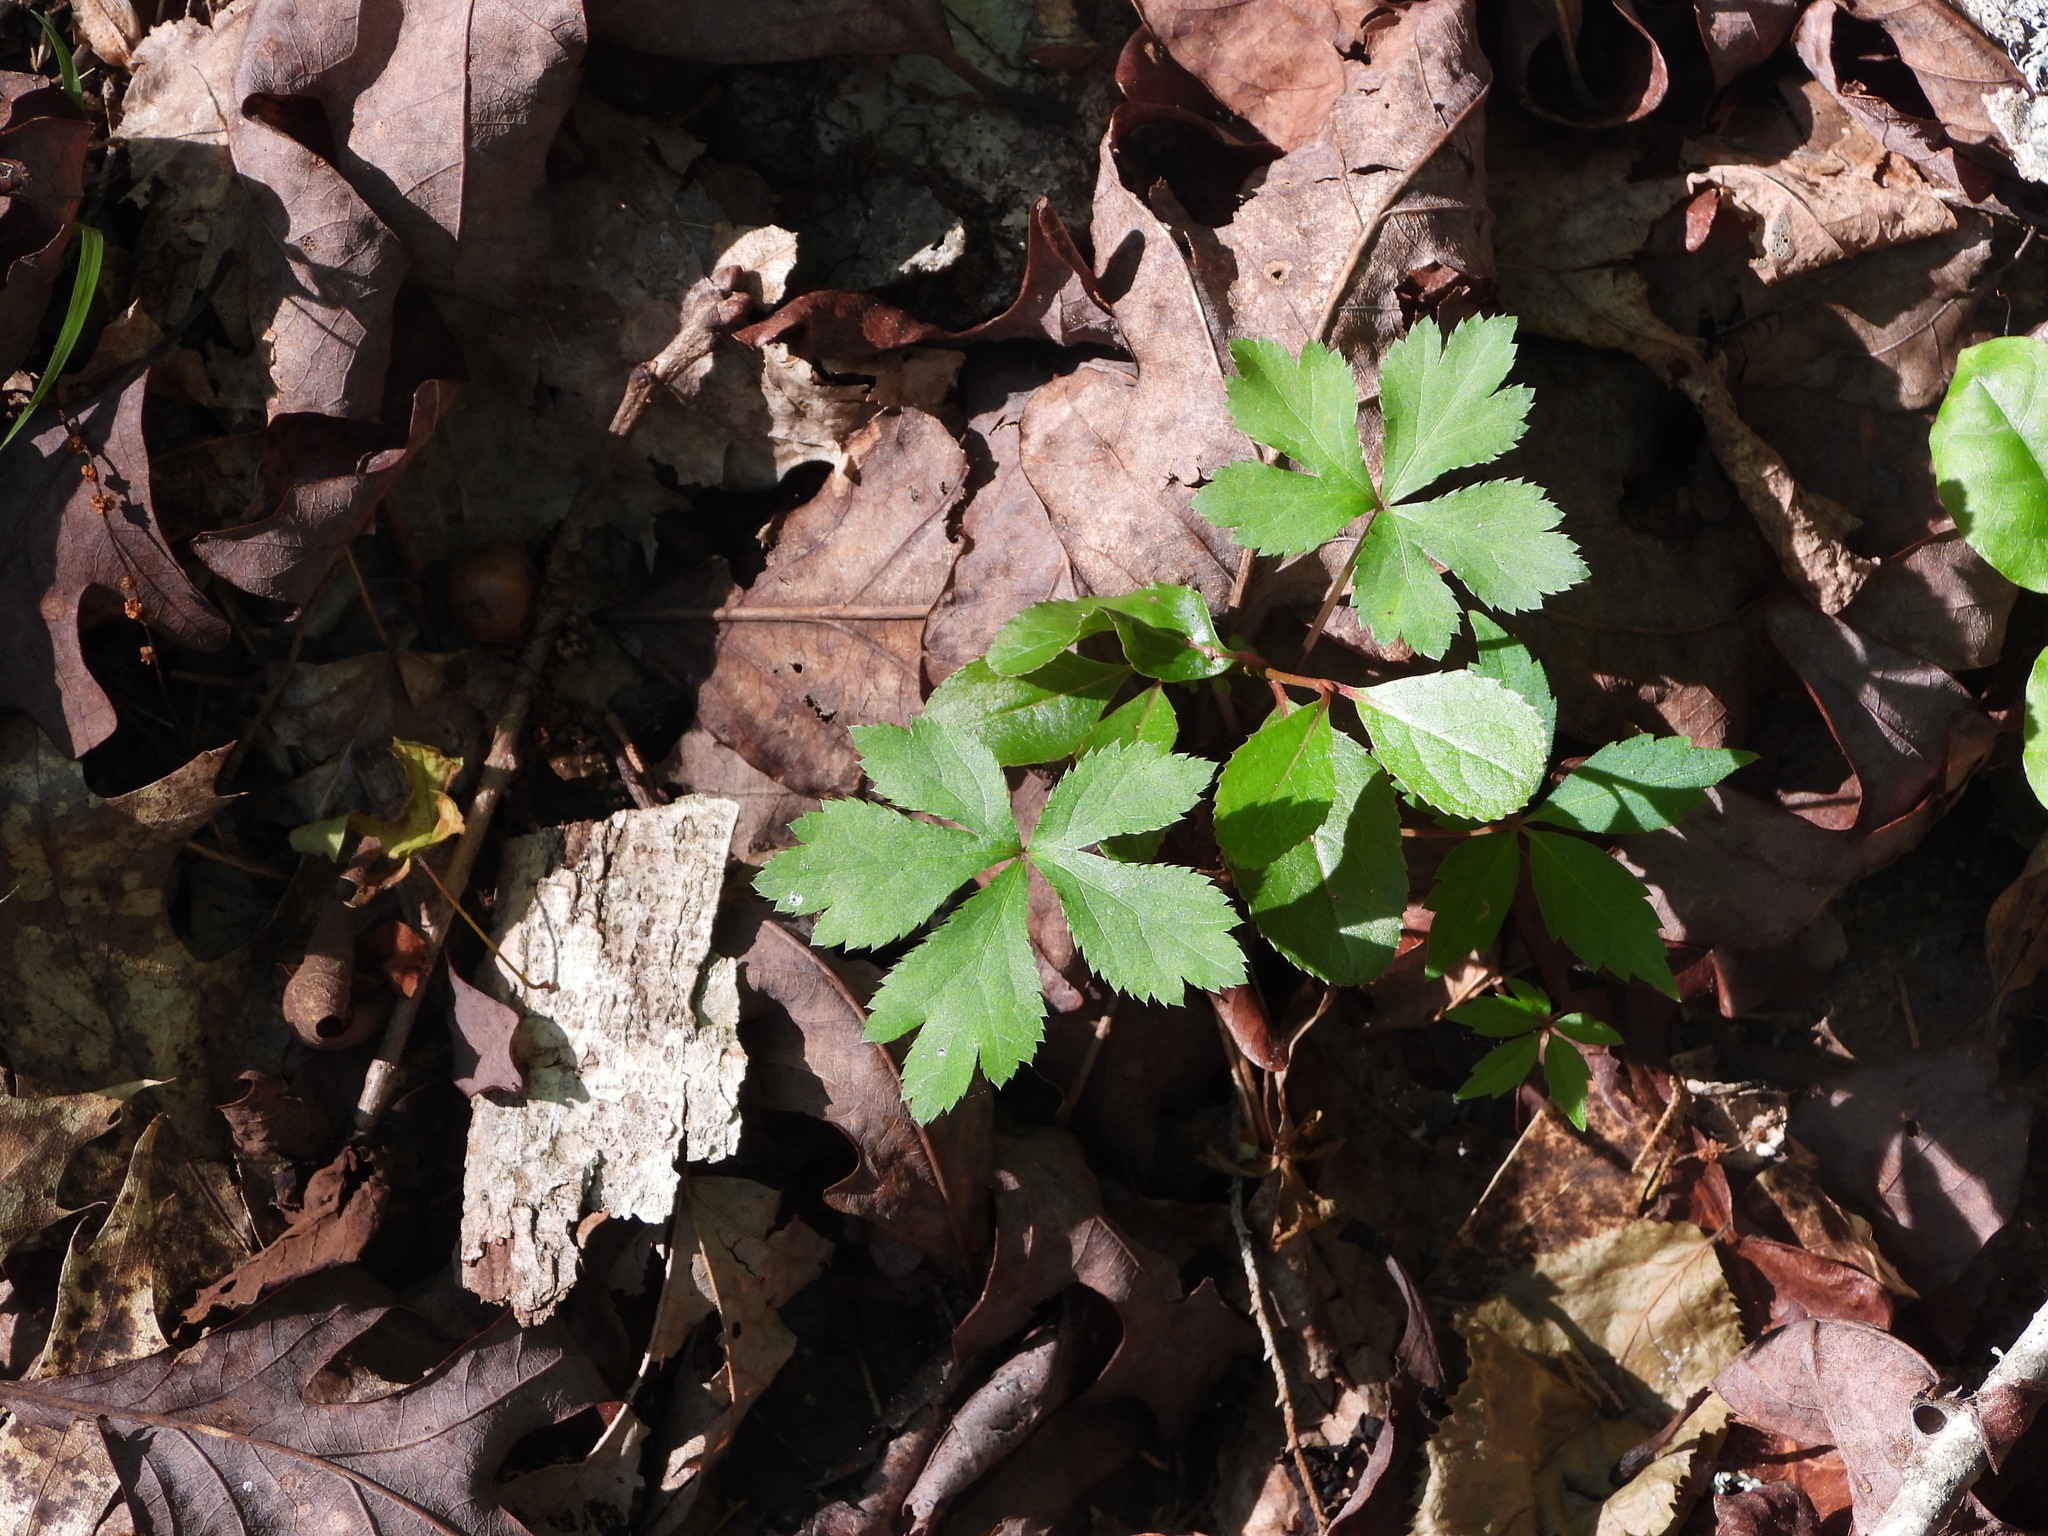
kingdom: Plantae
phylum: Tracheophyta
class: Magnoliopsida
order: Apiales
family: Apiaceae
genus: Sanicula
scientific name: Sanicula canadensis
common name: Canada sanicle
